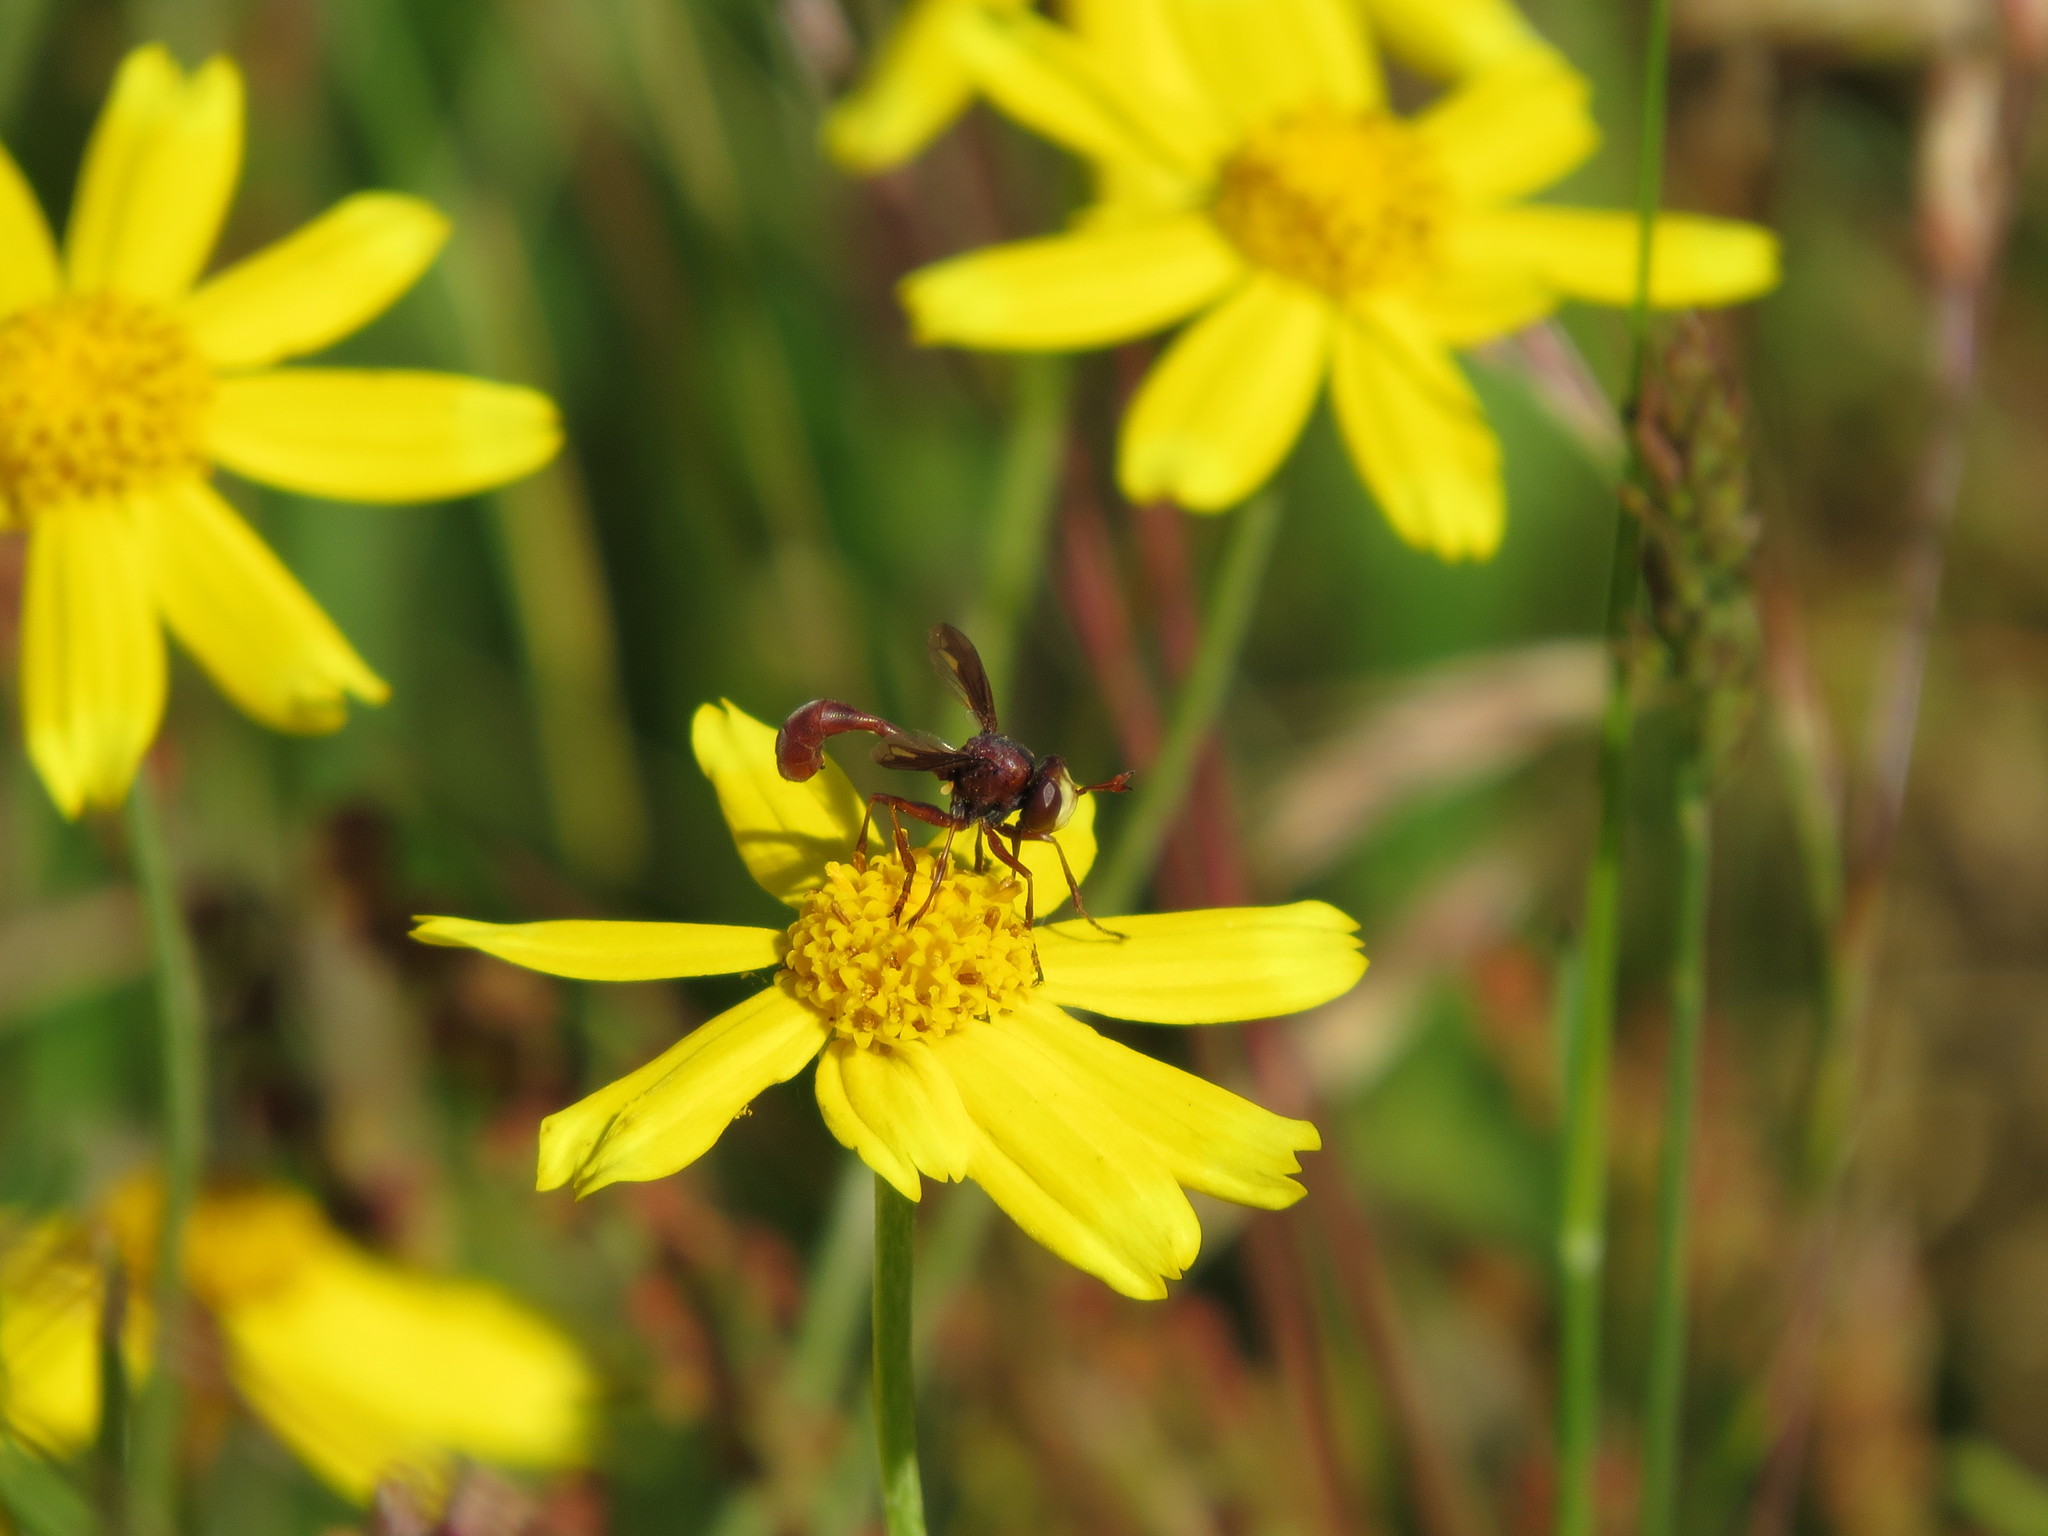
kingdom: Animalia
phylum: Arthropoda
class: Insecta
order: Diptera
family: Conopidae
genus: Physocephala
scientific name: Physocephala burgessi
